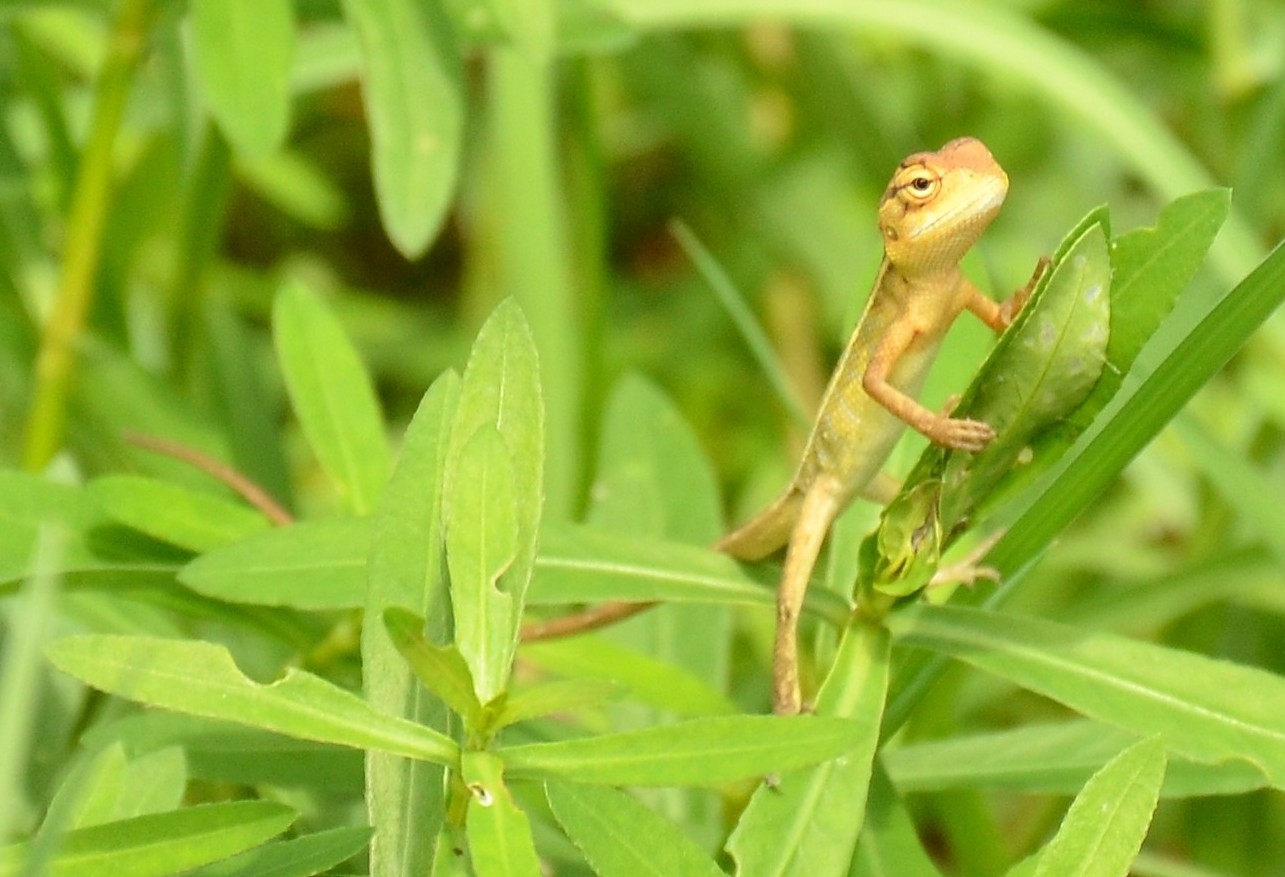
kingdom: Animalia
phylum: Chordata
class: Squamata
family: Agamidae
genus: Calotes
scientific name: Calotes versicolor
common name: Oriental garden lizard
